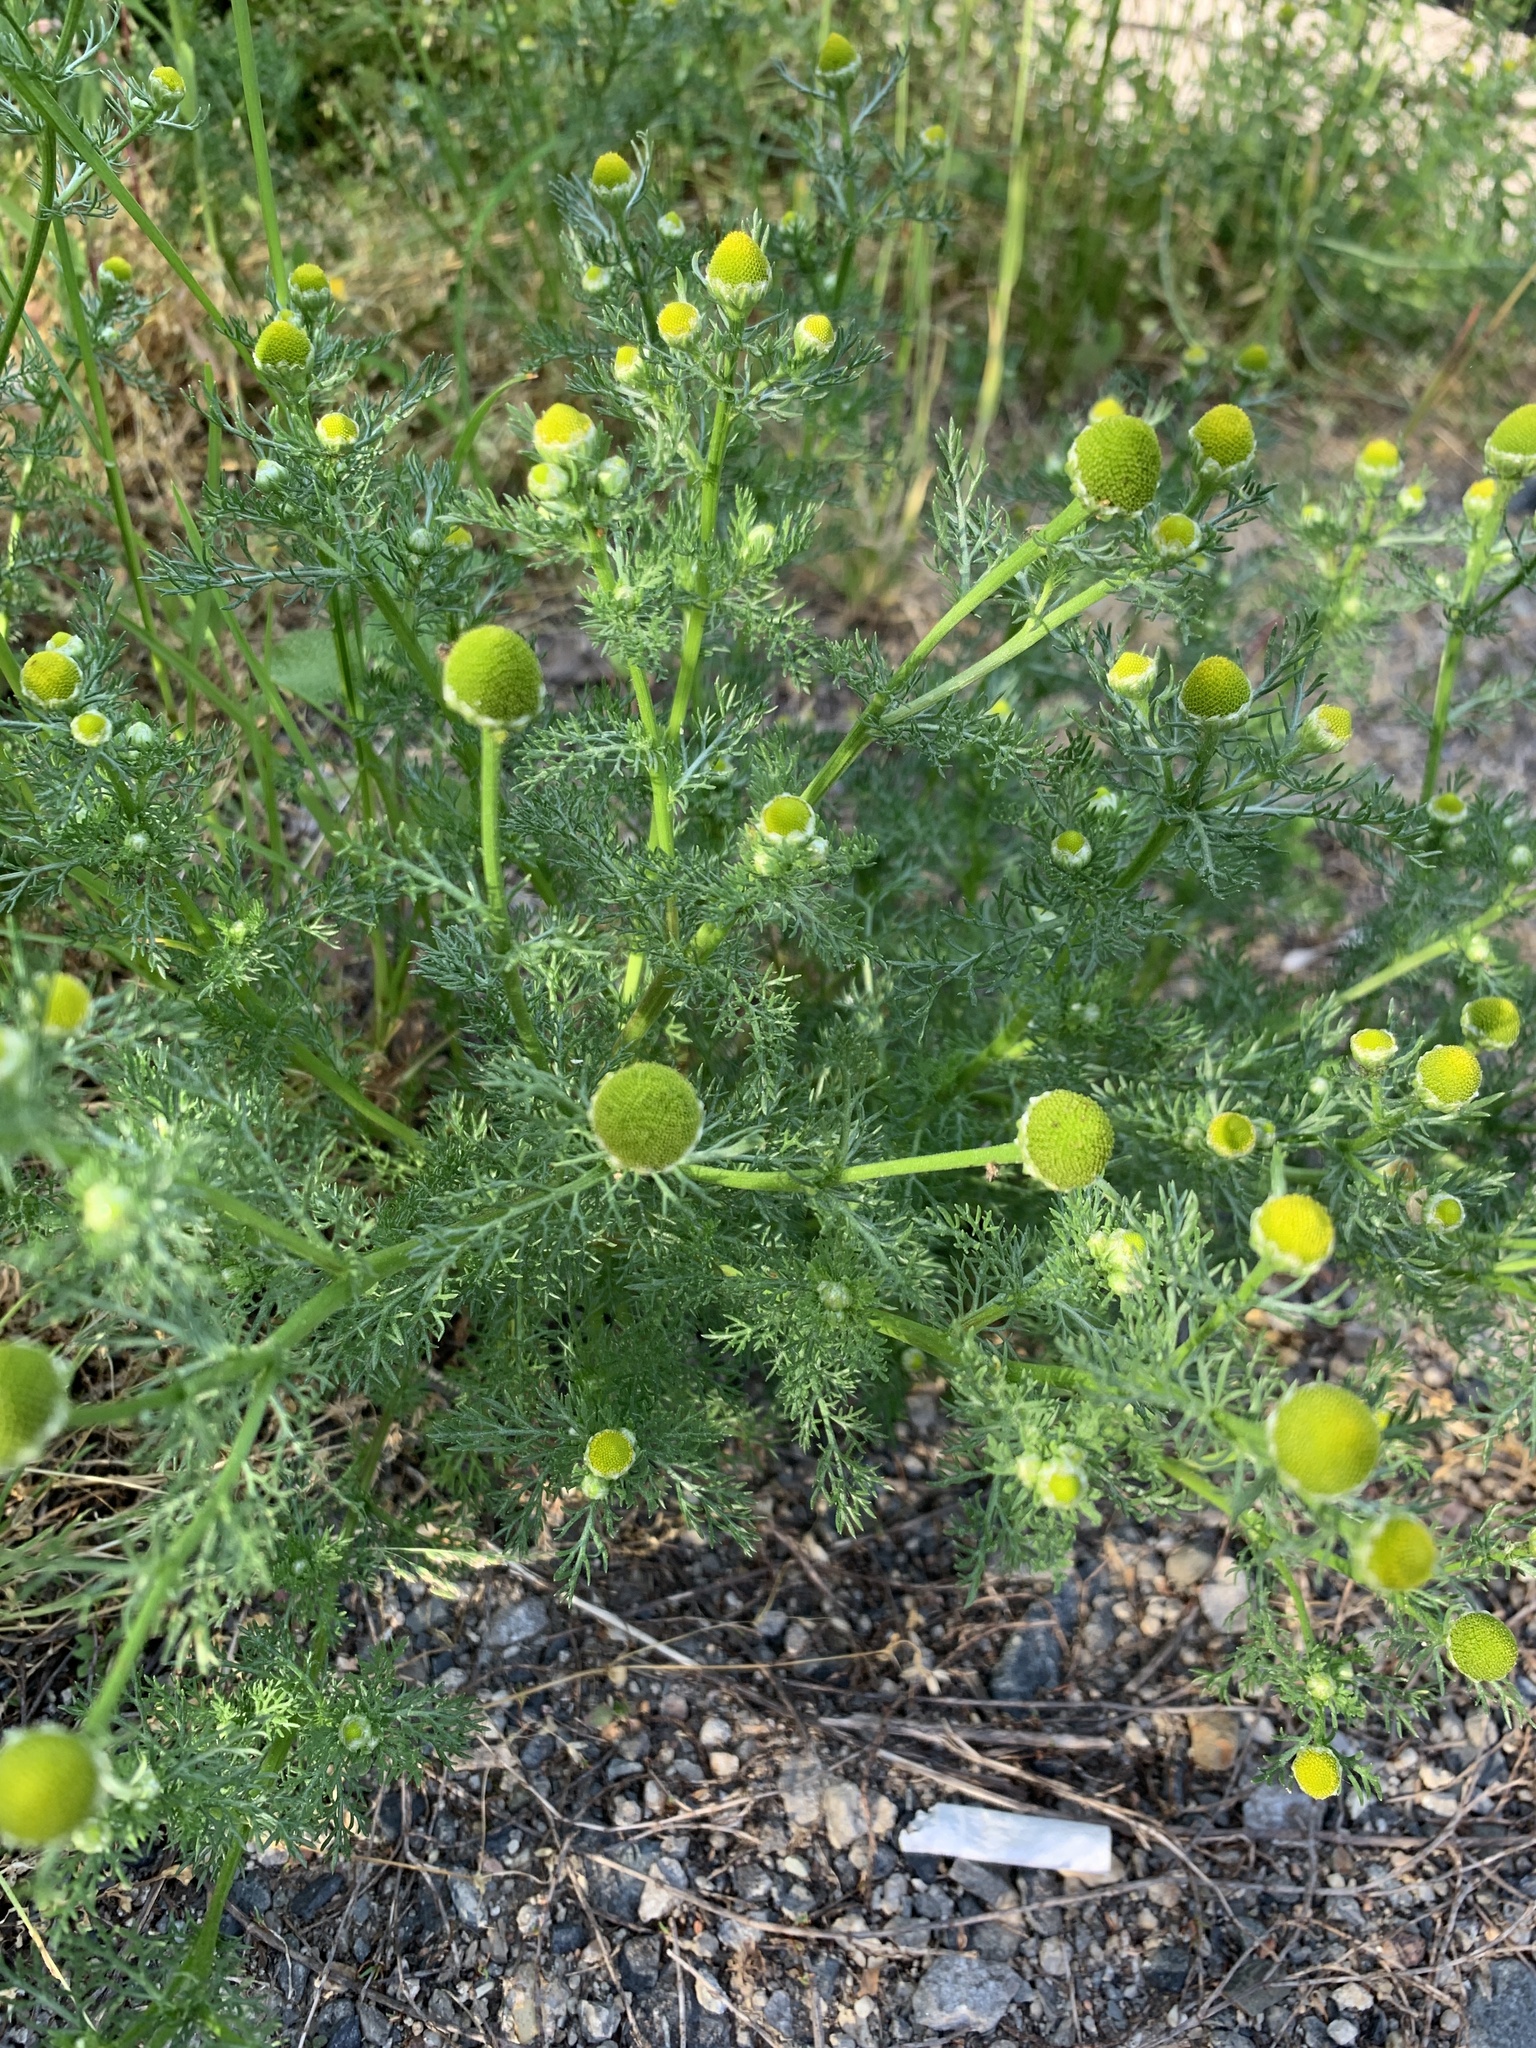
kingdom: Plantae
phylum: Tracheophyta
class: Magnoliopsida
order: Asterales
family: Asteraceae
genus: Matricaria
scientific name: Matricaria discoidea
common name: Disc mayweed
